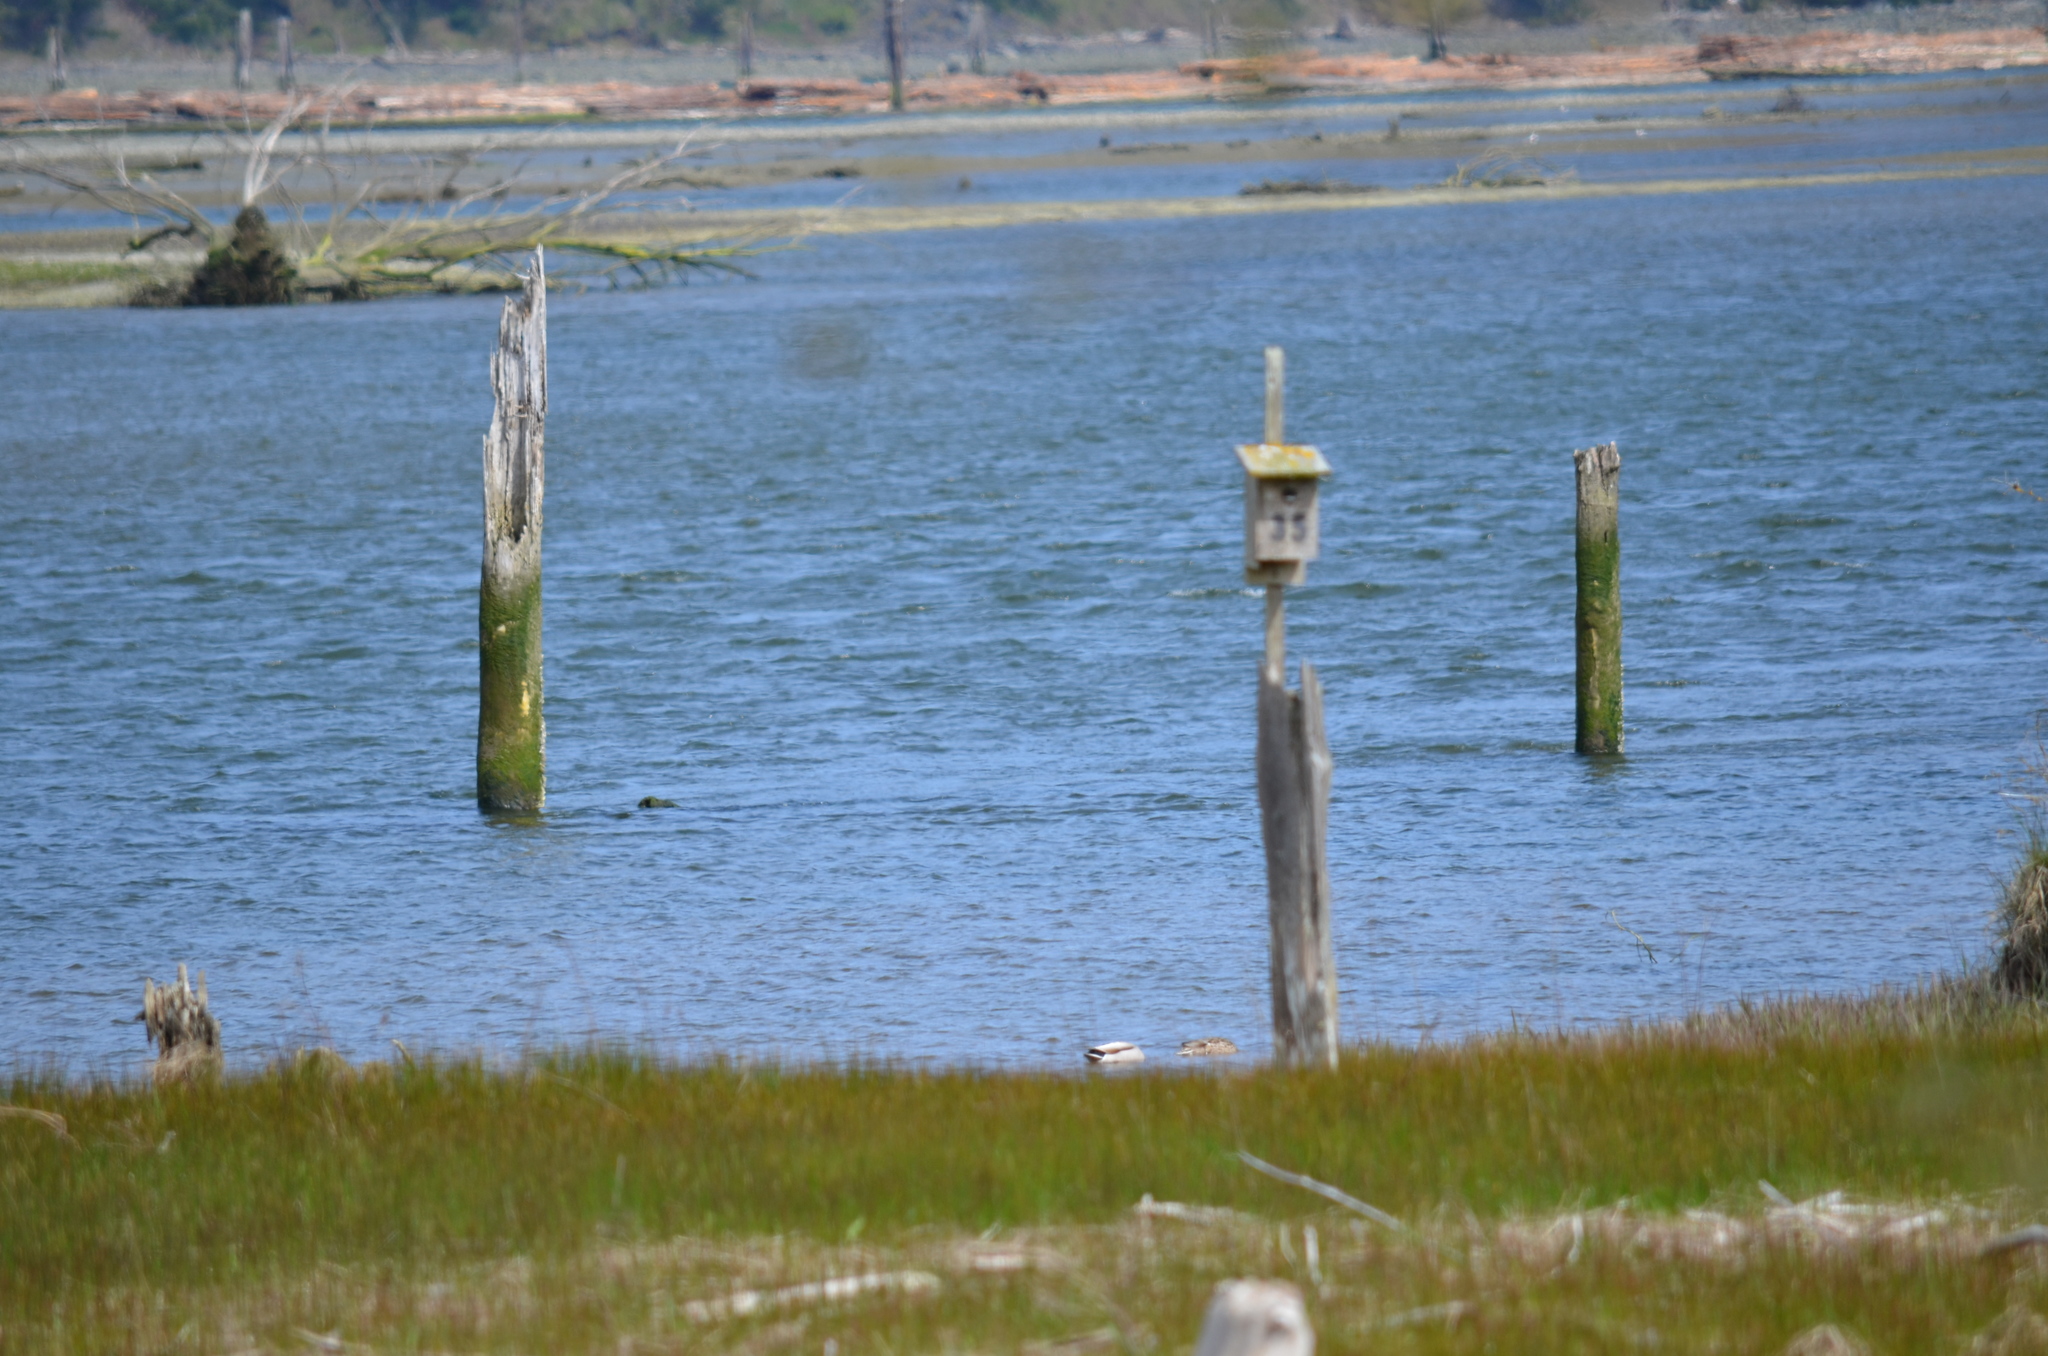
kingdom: Animalia
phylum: Chordata
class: Aves
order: Anseriformes
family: Anatidae
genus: Anas
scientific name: Anas platyrhynchos
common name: Mallard
